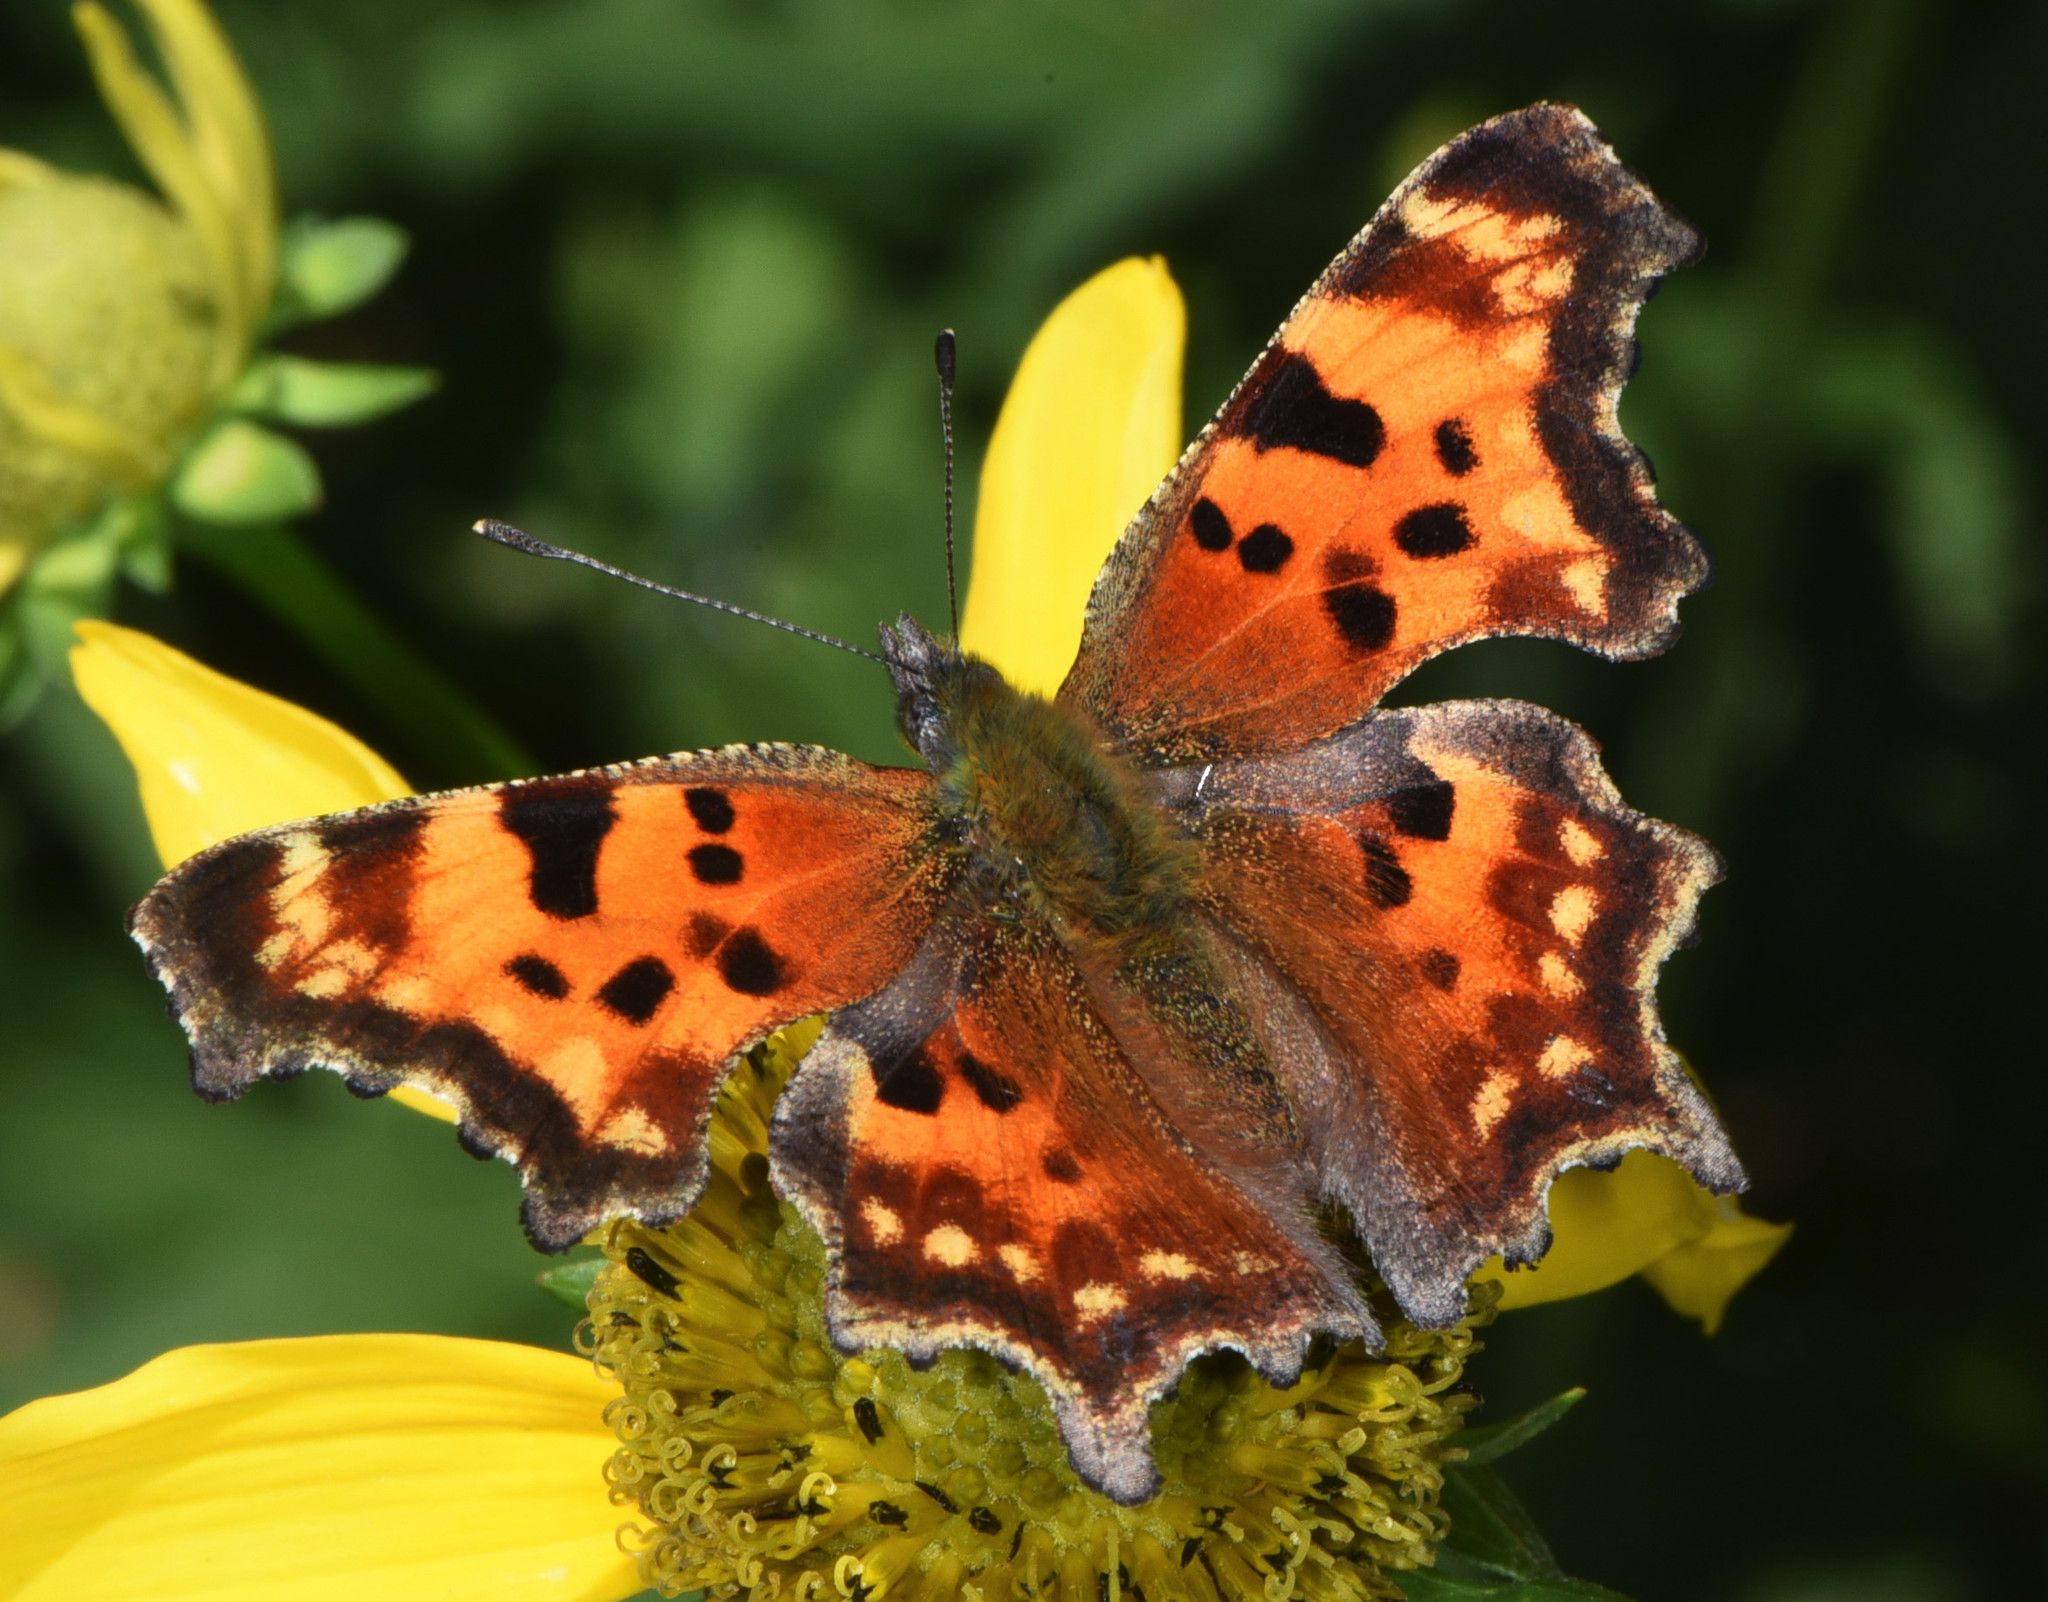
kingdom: Animalia
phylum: Arthropoda
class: Insecta
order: Lepidoptera
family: Nymphalidae
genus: Polygonia
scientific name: Polygonia faunus
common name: Green comma
